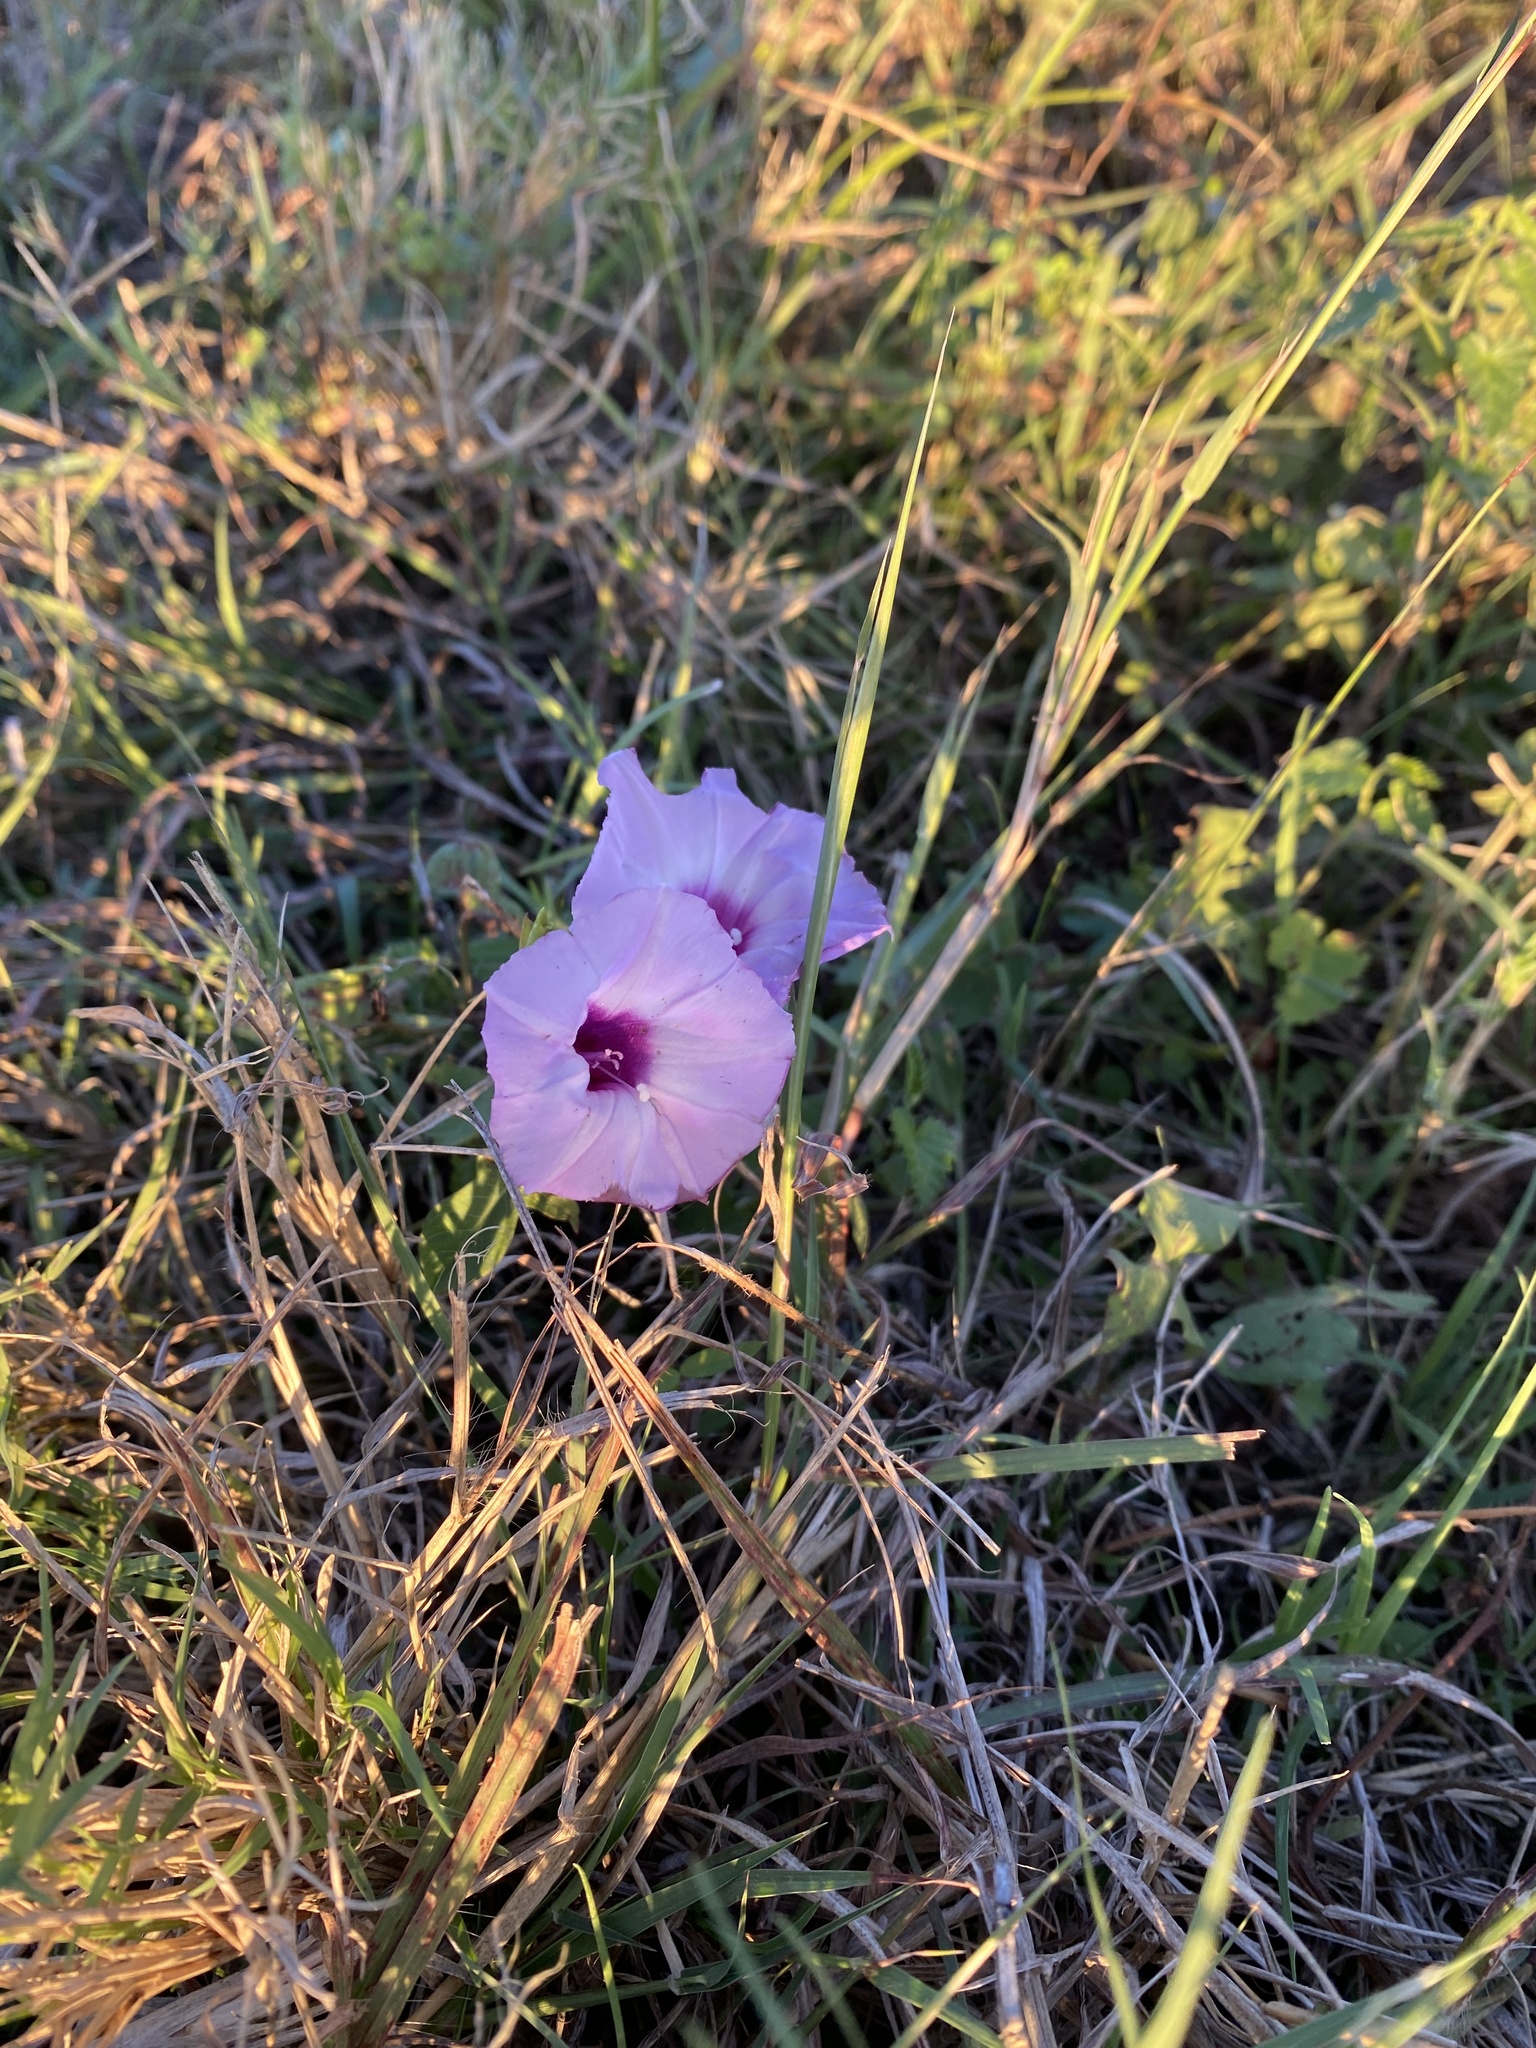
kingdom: Plantae
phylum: Tracheophyta
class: Magnoliopsida
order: Solanales
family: Convolvulaceae
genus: Ipomoea
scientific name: Ipomoea cordatotriloba
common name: Cotton morning glory
